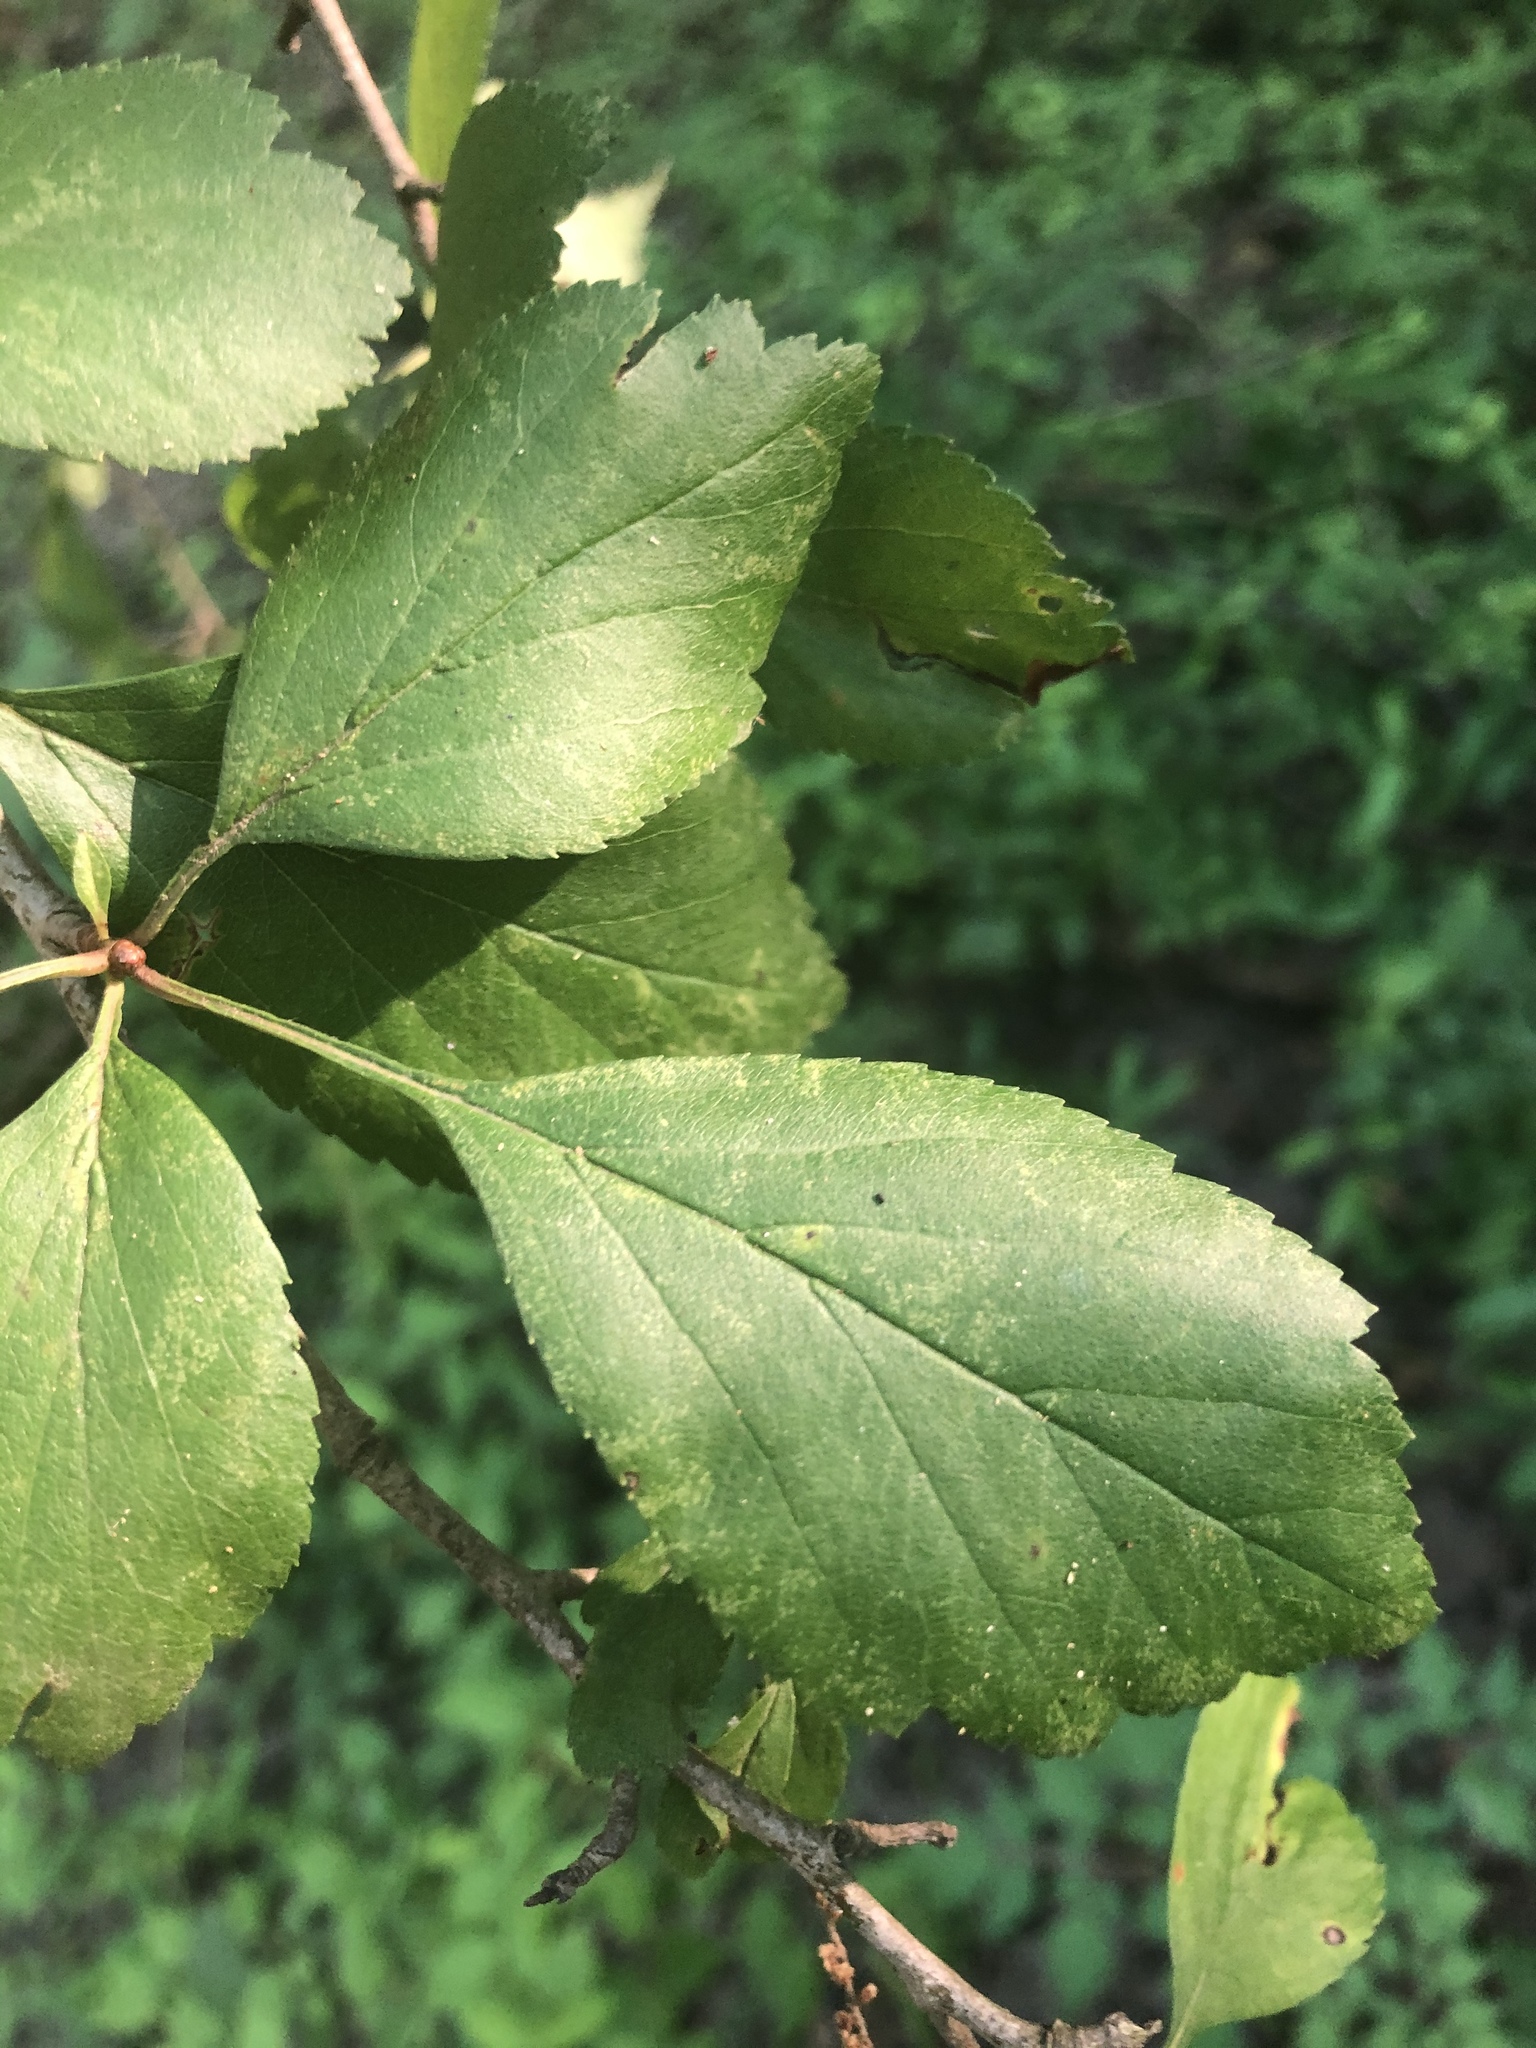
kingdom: Plantae
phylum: Tracheophyta
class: Magnoliopsida
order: Rosales
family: Rosaceae
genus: Crataegus
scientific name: Crataegus viridis
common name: Southernthorn
